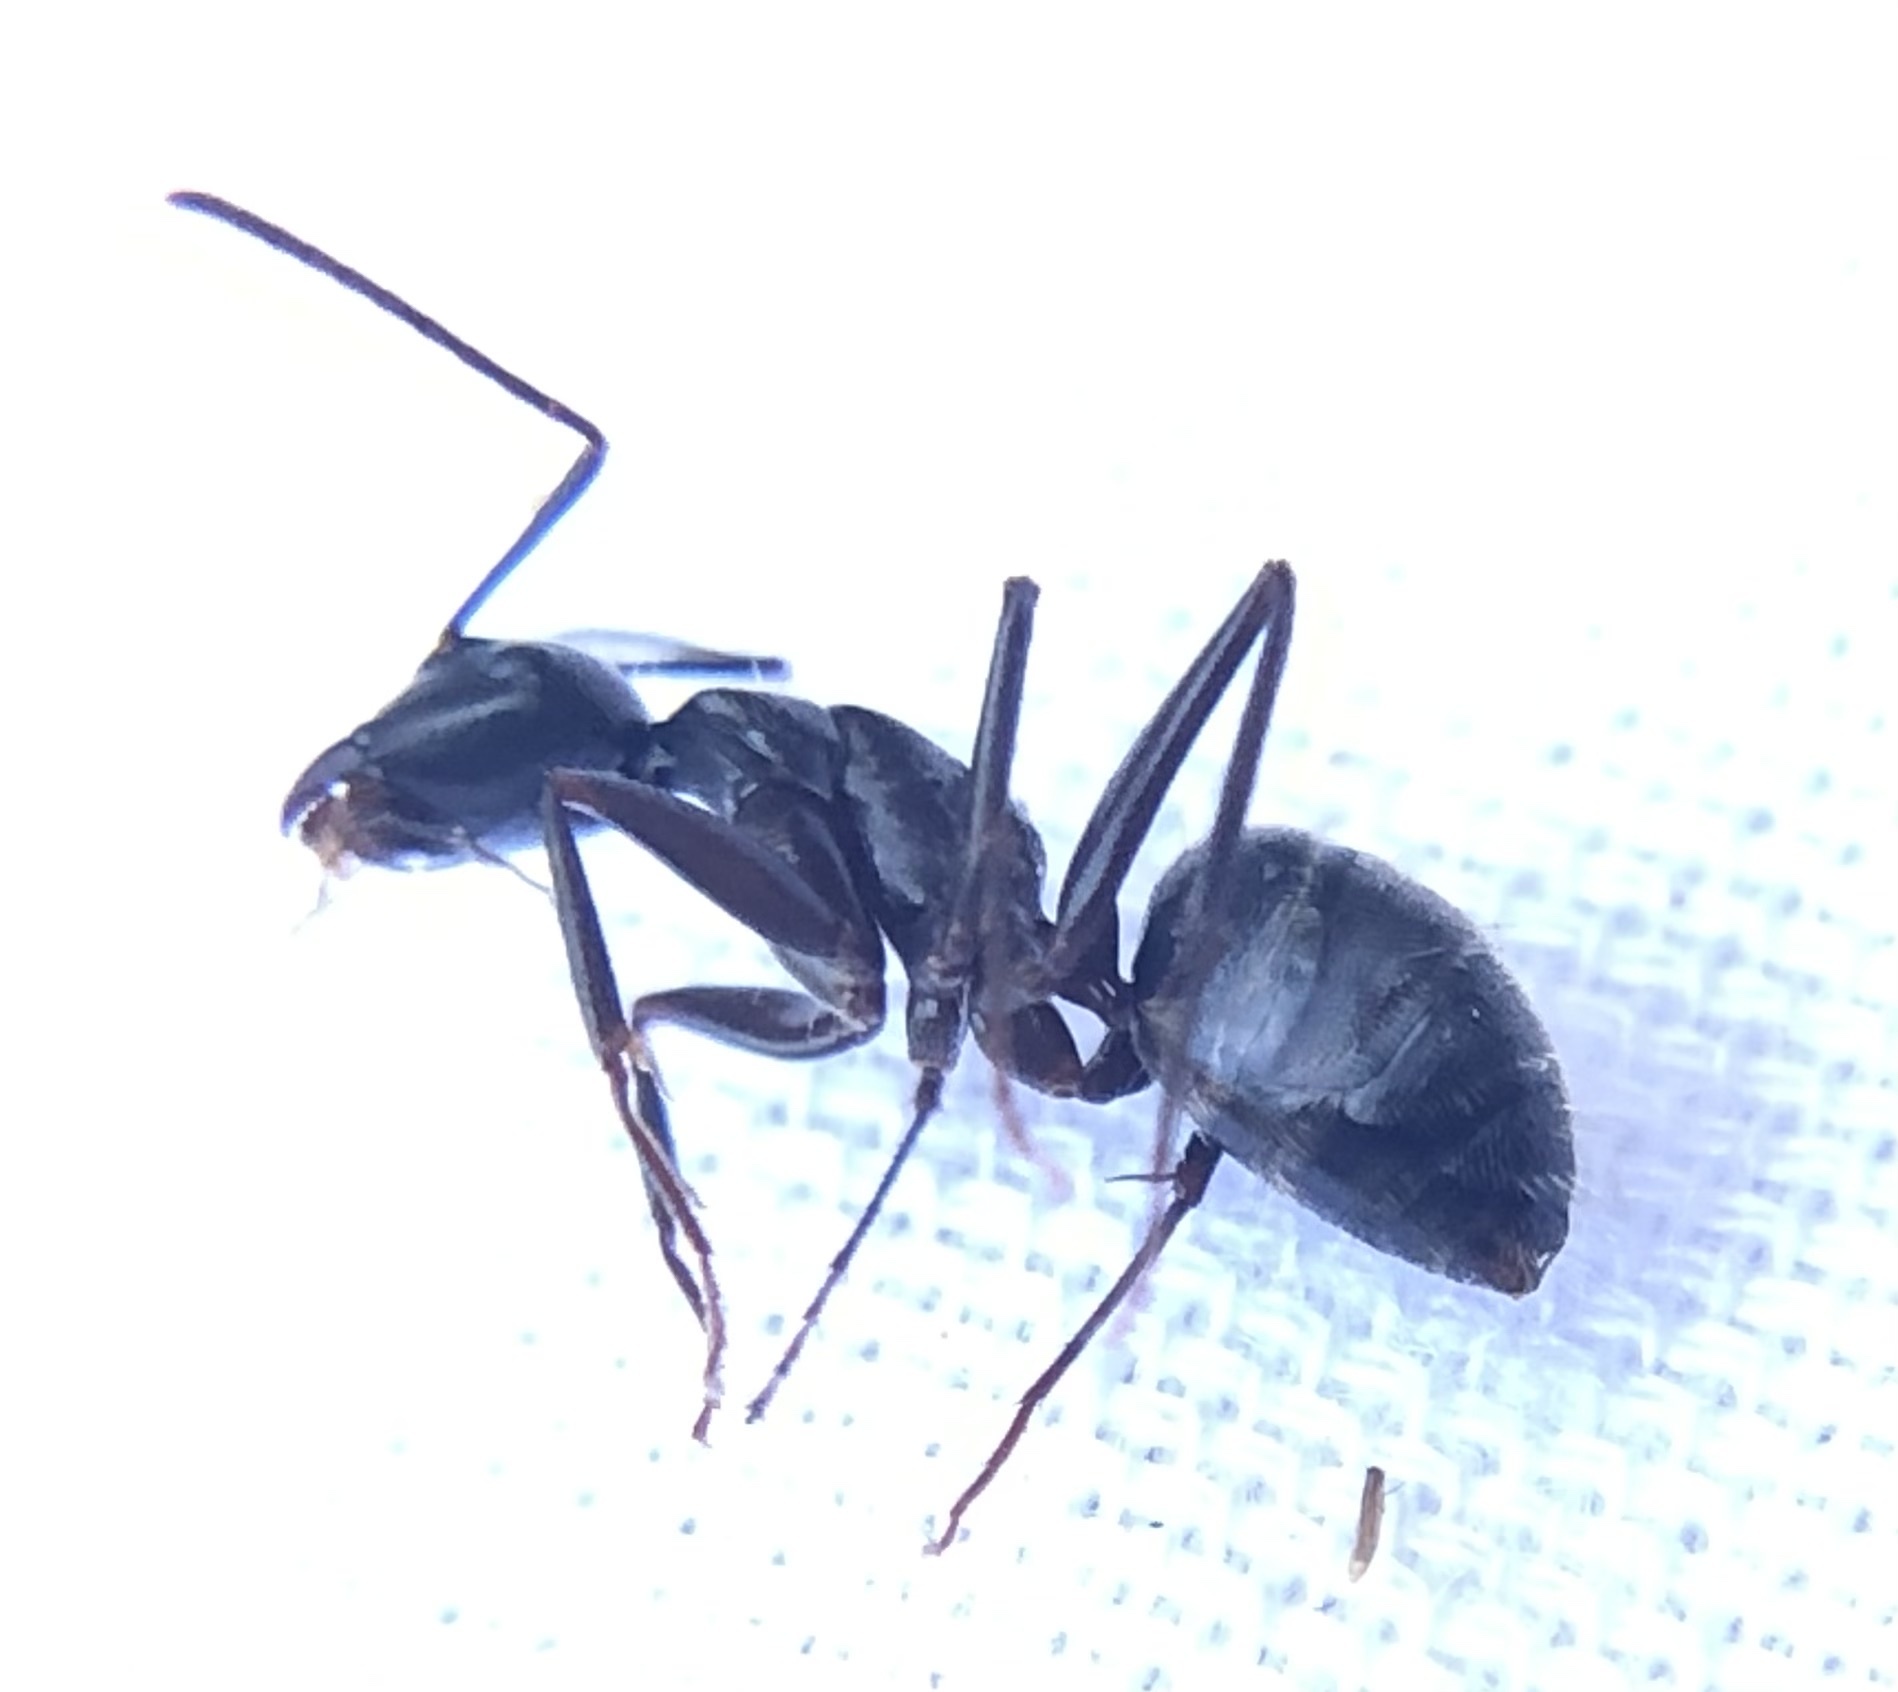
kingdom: Animalia
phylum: Arthropoda
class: Insecta
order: Hymenoptera
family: Formicidae
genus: Camponotus
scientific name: Camponotus pennsylvanicus
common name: Black carpenter ant
